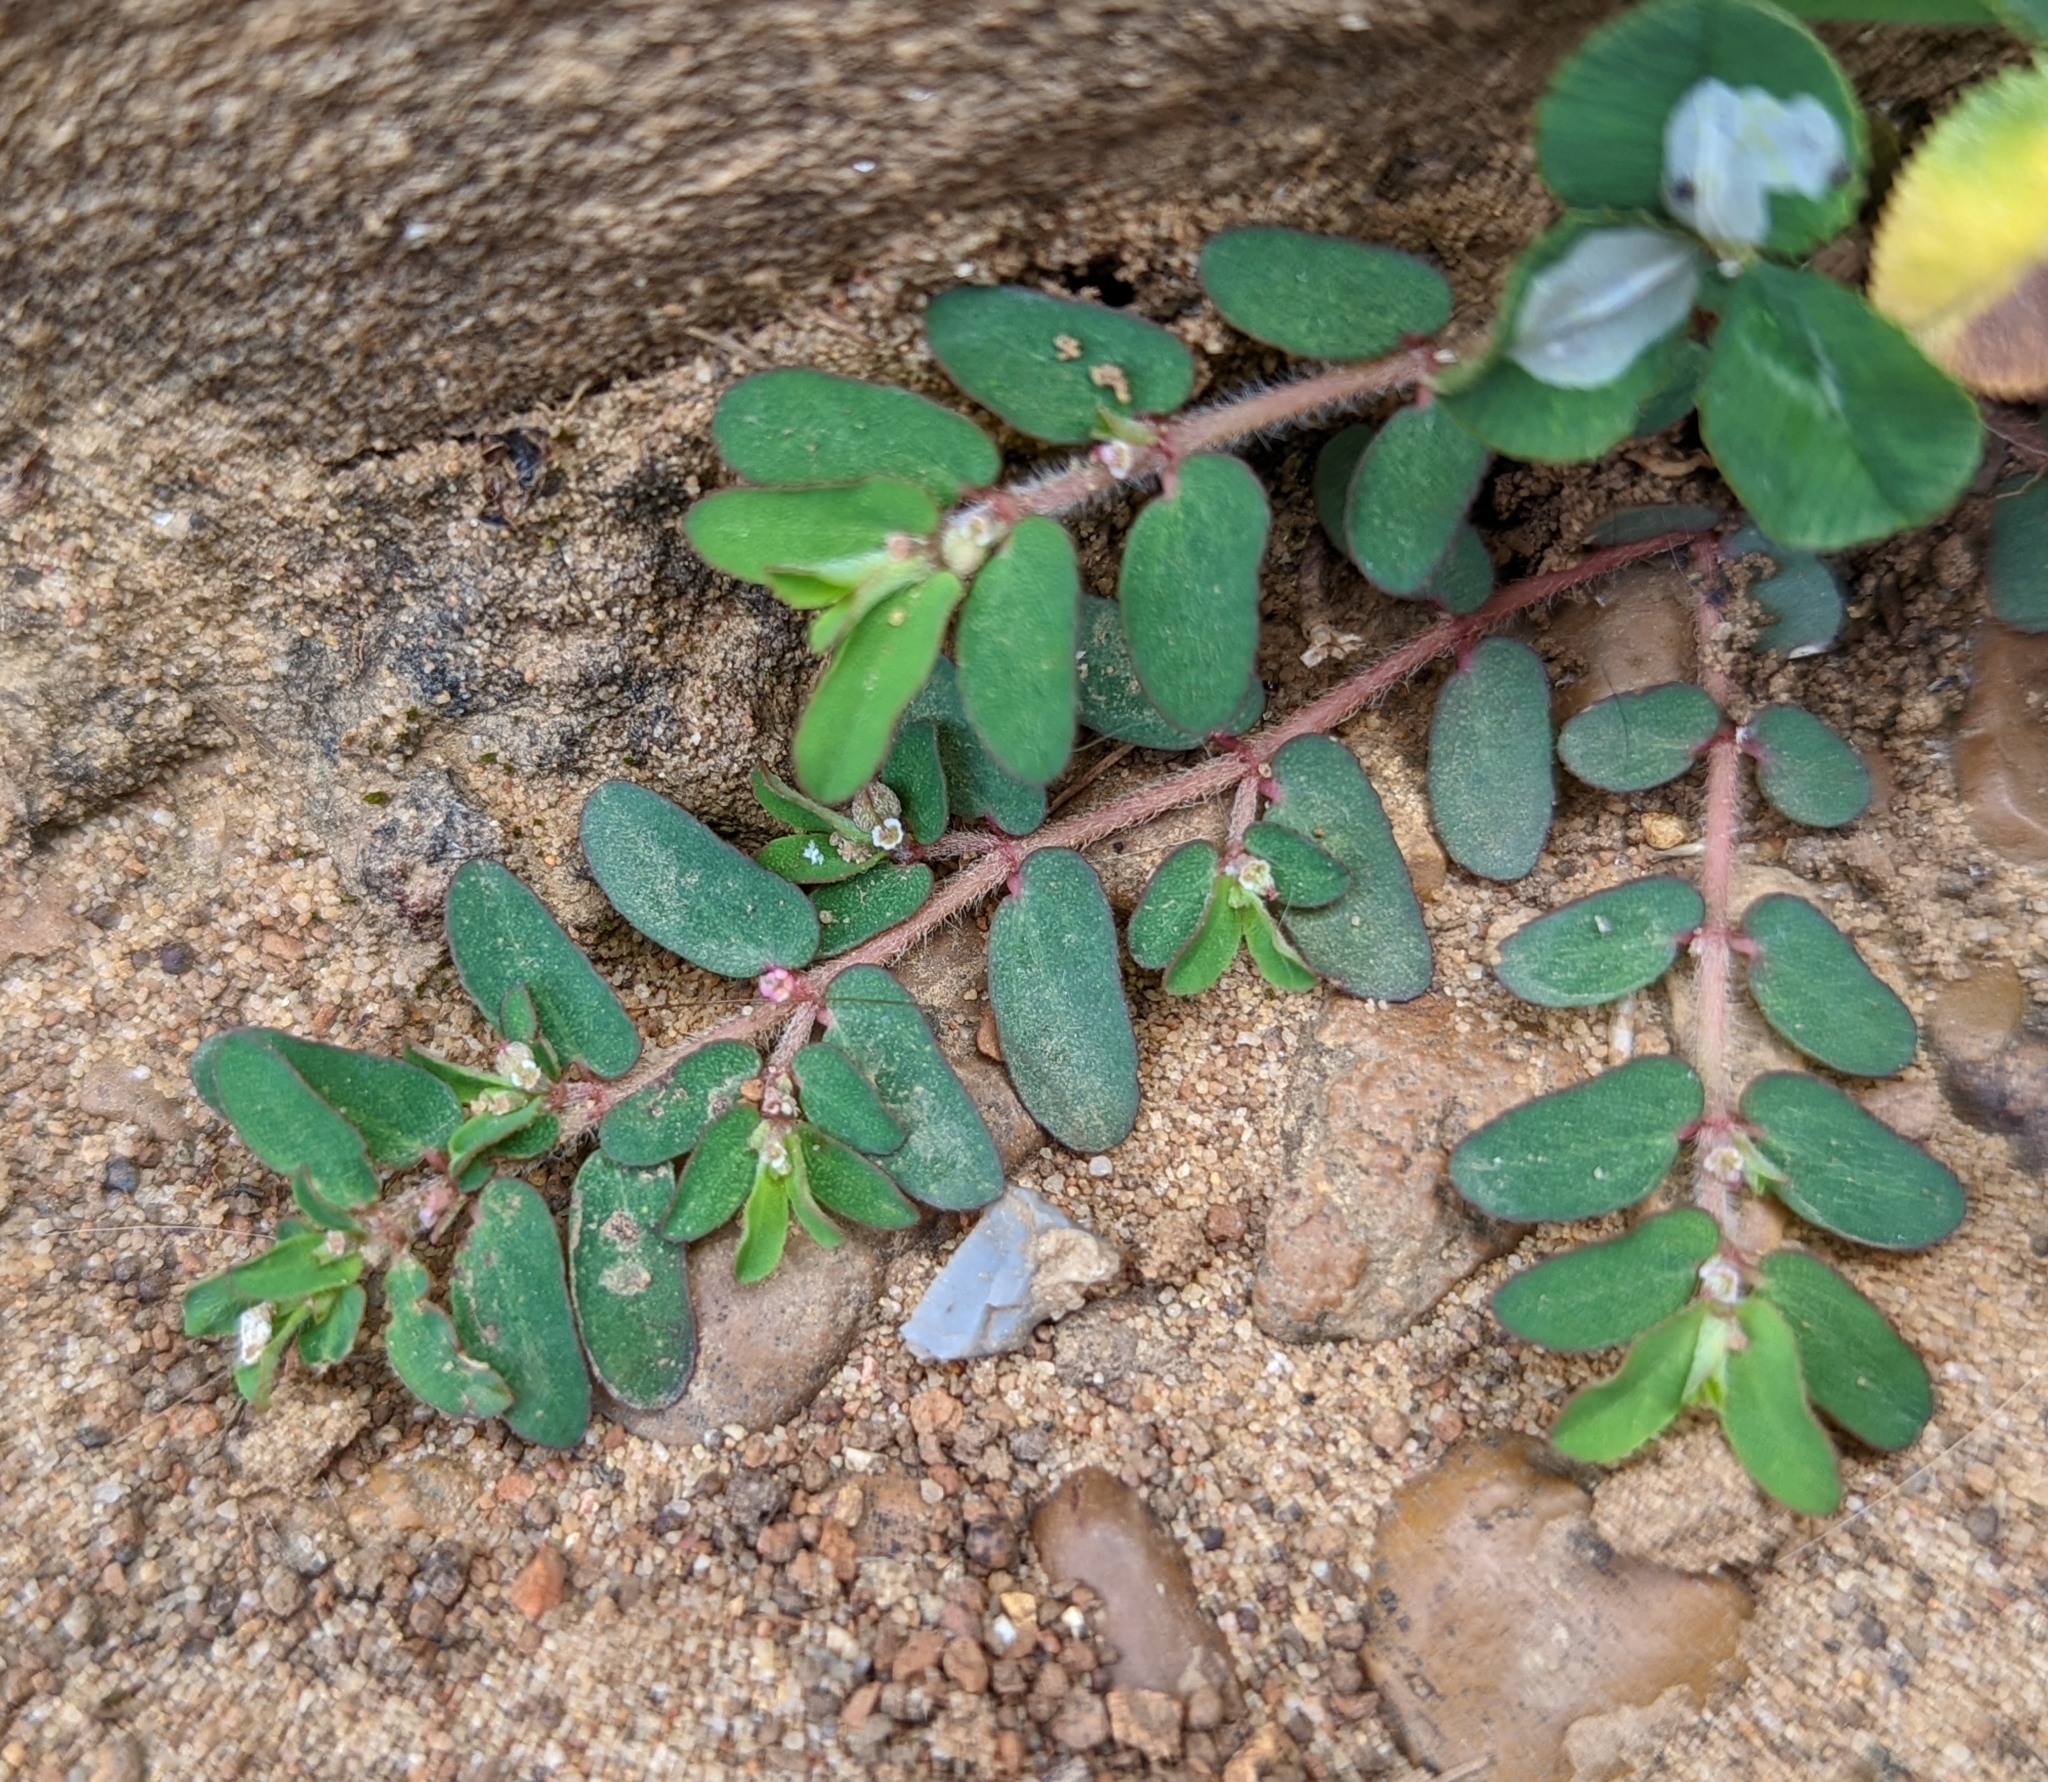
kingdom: Plantae
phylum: Tracheophyta
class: Magnoliopsida
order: Malpighiales
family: Euphorbiaceae
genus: Euphorbia
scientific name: Euphorbia maculata
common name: Spotted spurge
